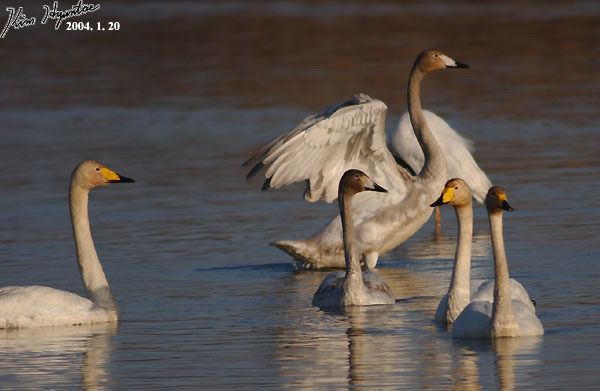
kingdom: Animalia
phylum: Chordata
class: Aves
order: Anseriformes
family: Anatidae
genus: Cygnus
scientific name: Cygnus cygnus
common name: Whooper swan
